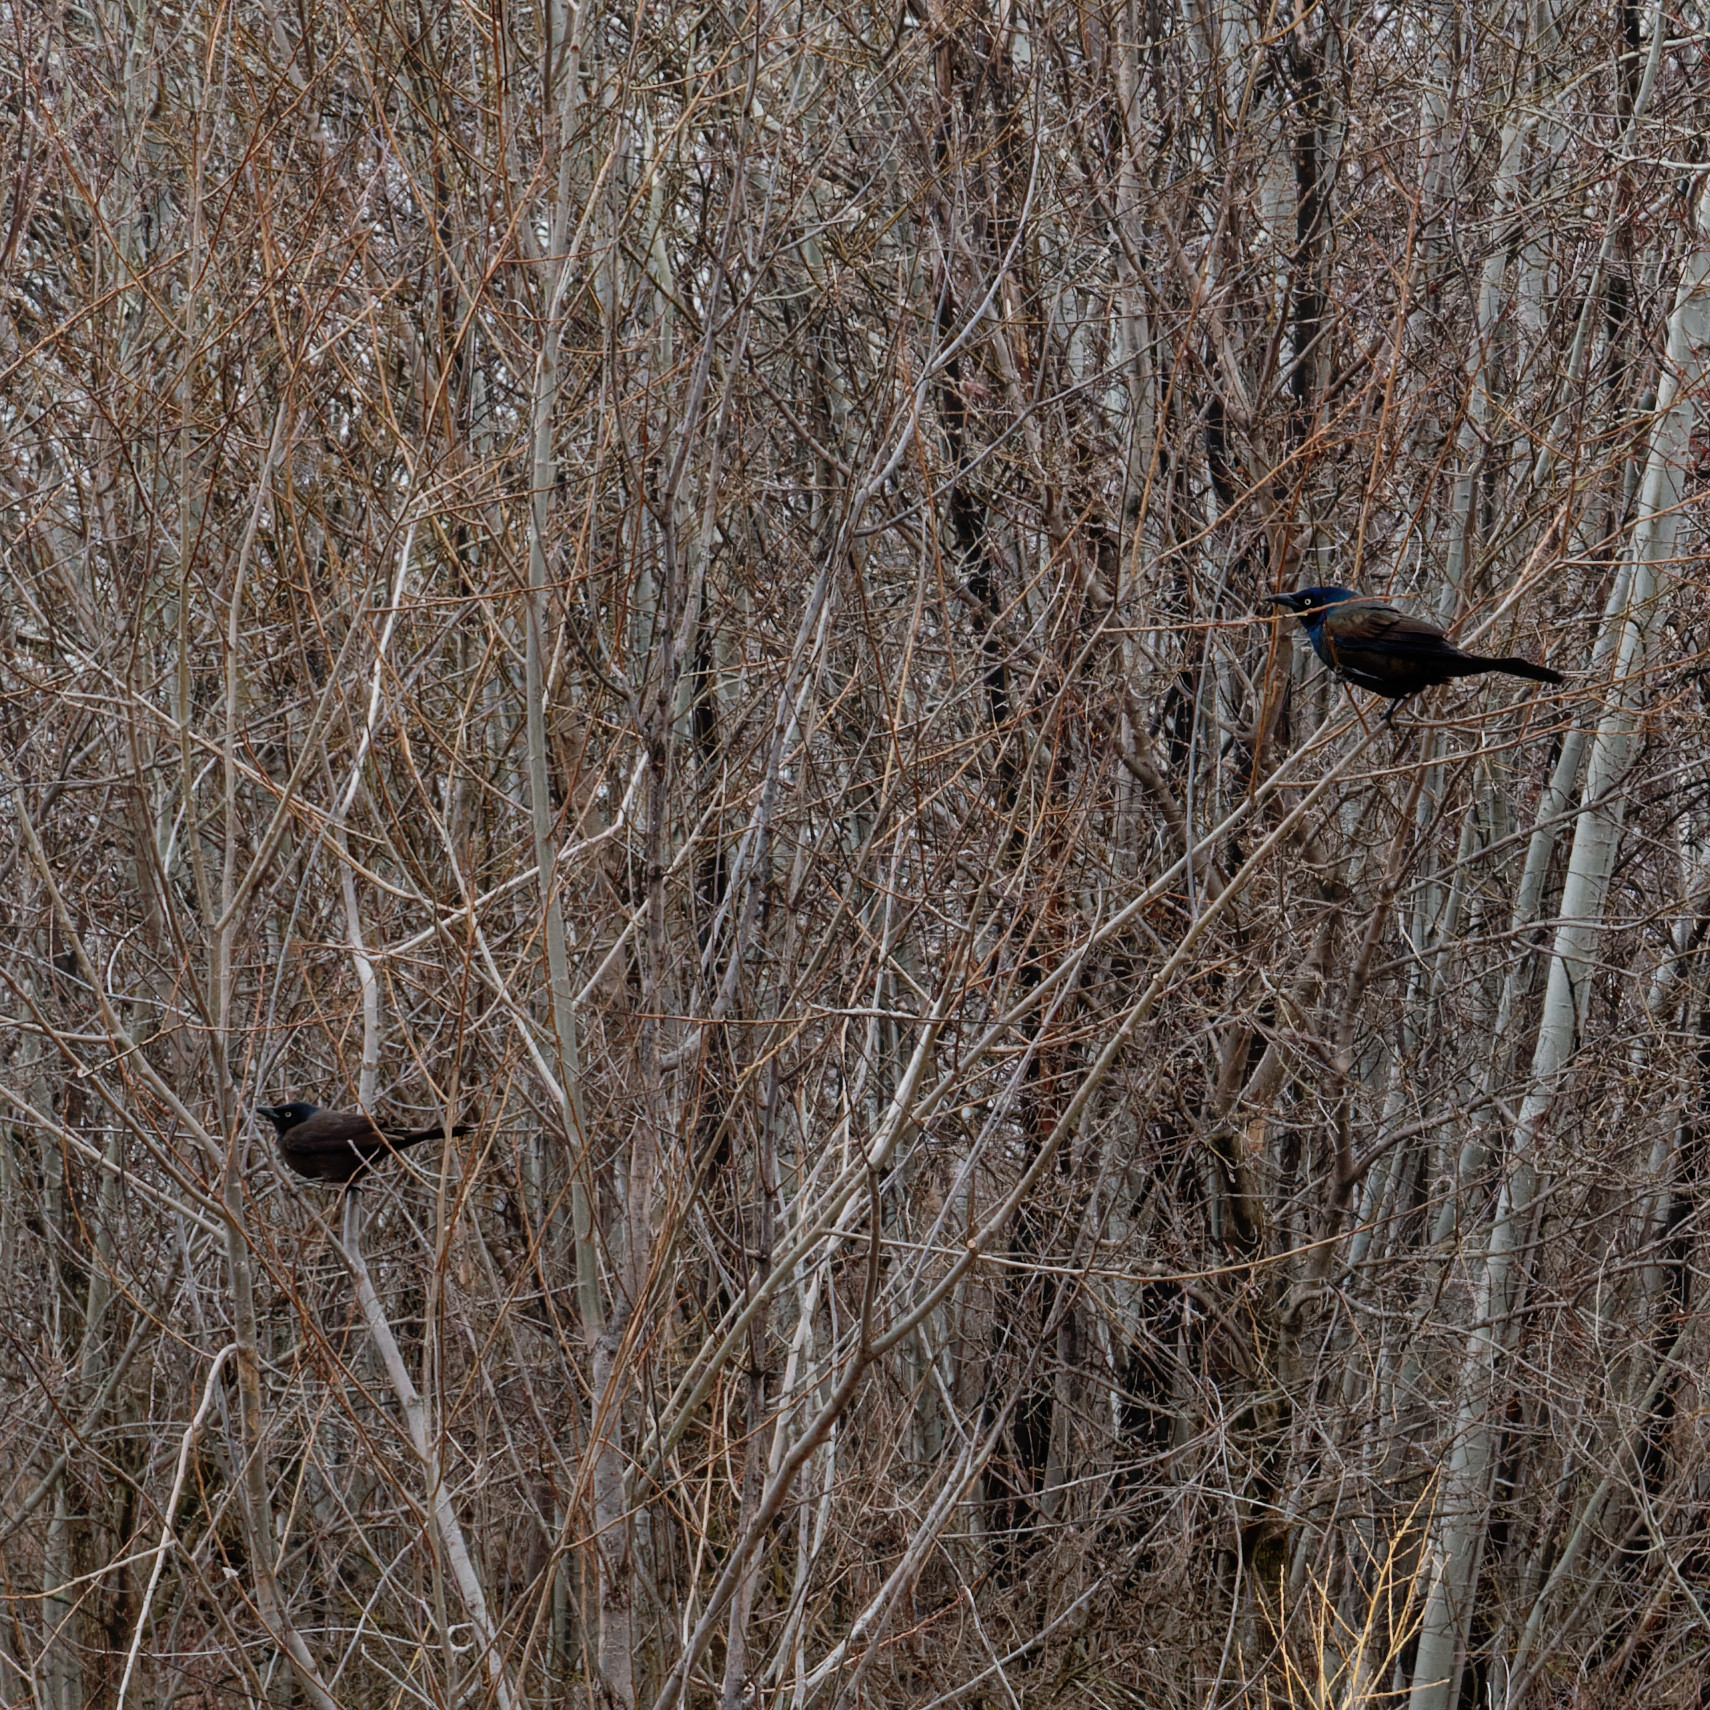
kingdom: Animalia
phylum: Chordata
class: Aves
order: Passeriformes
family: Icteridae
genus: Quiscalus
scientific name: Quiscalus quiscula
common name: Common grackle
